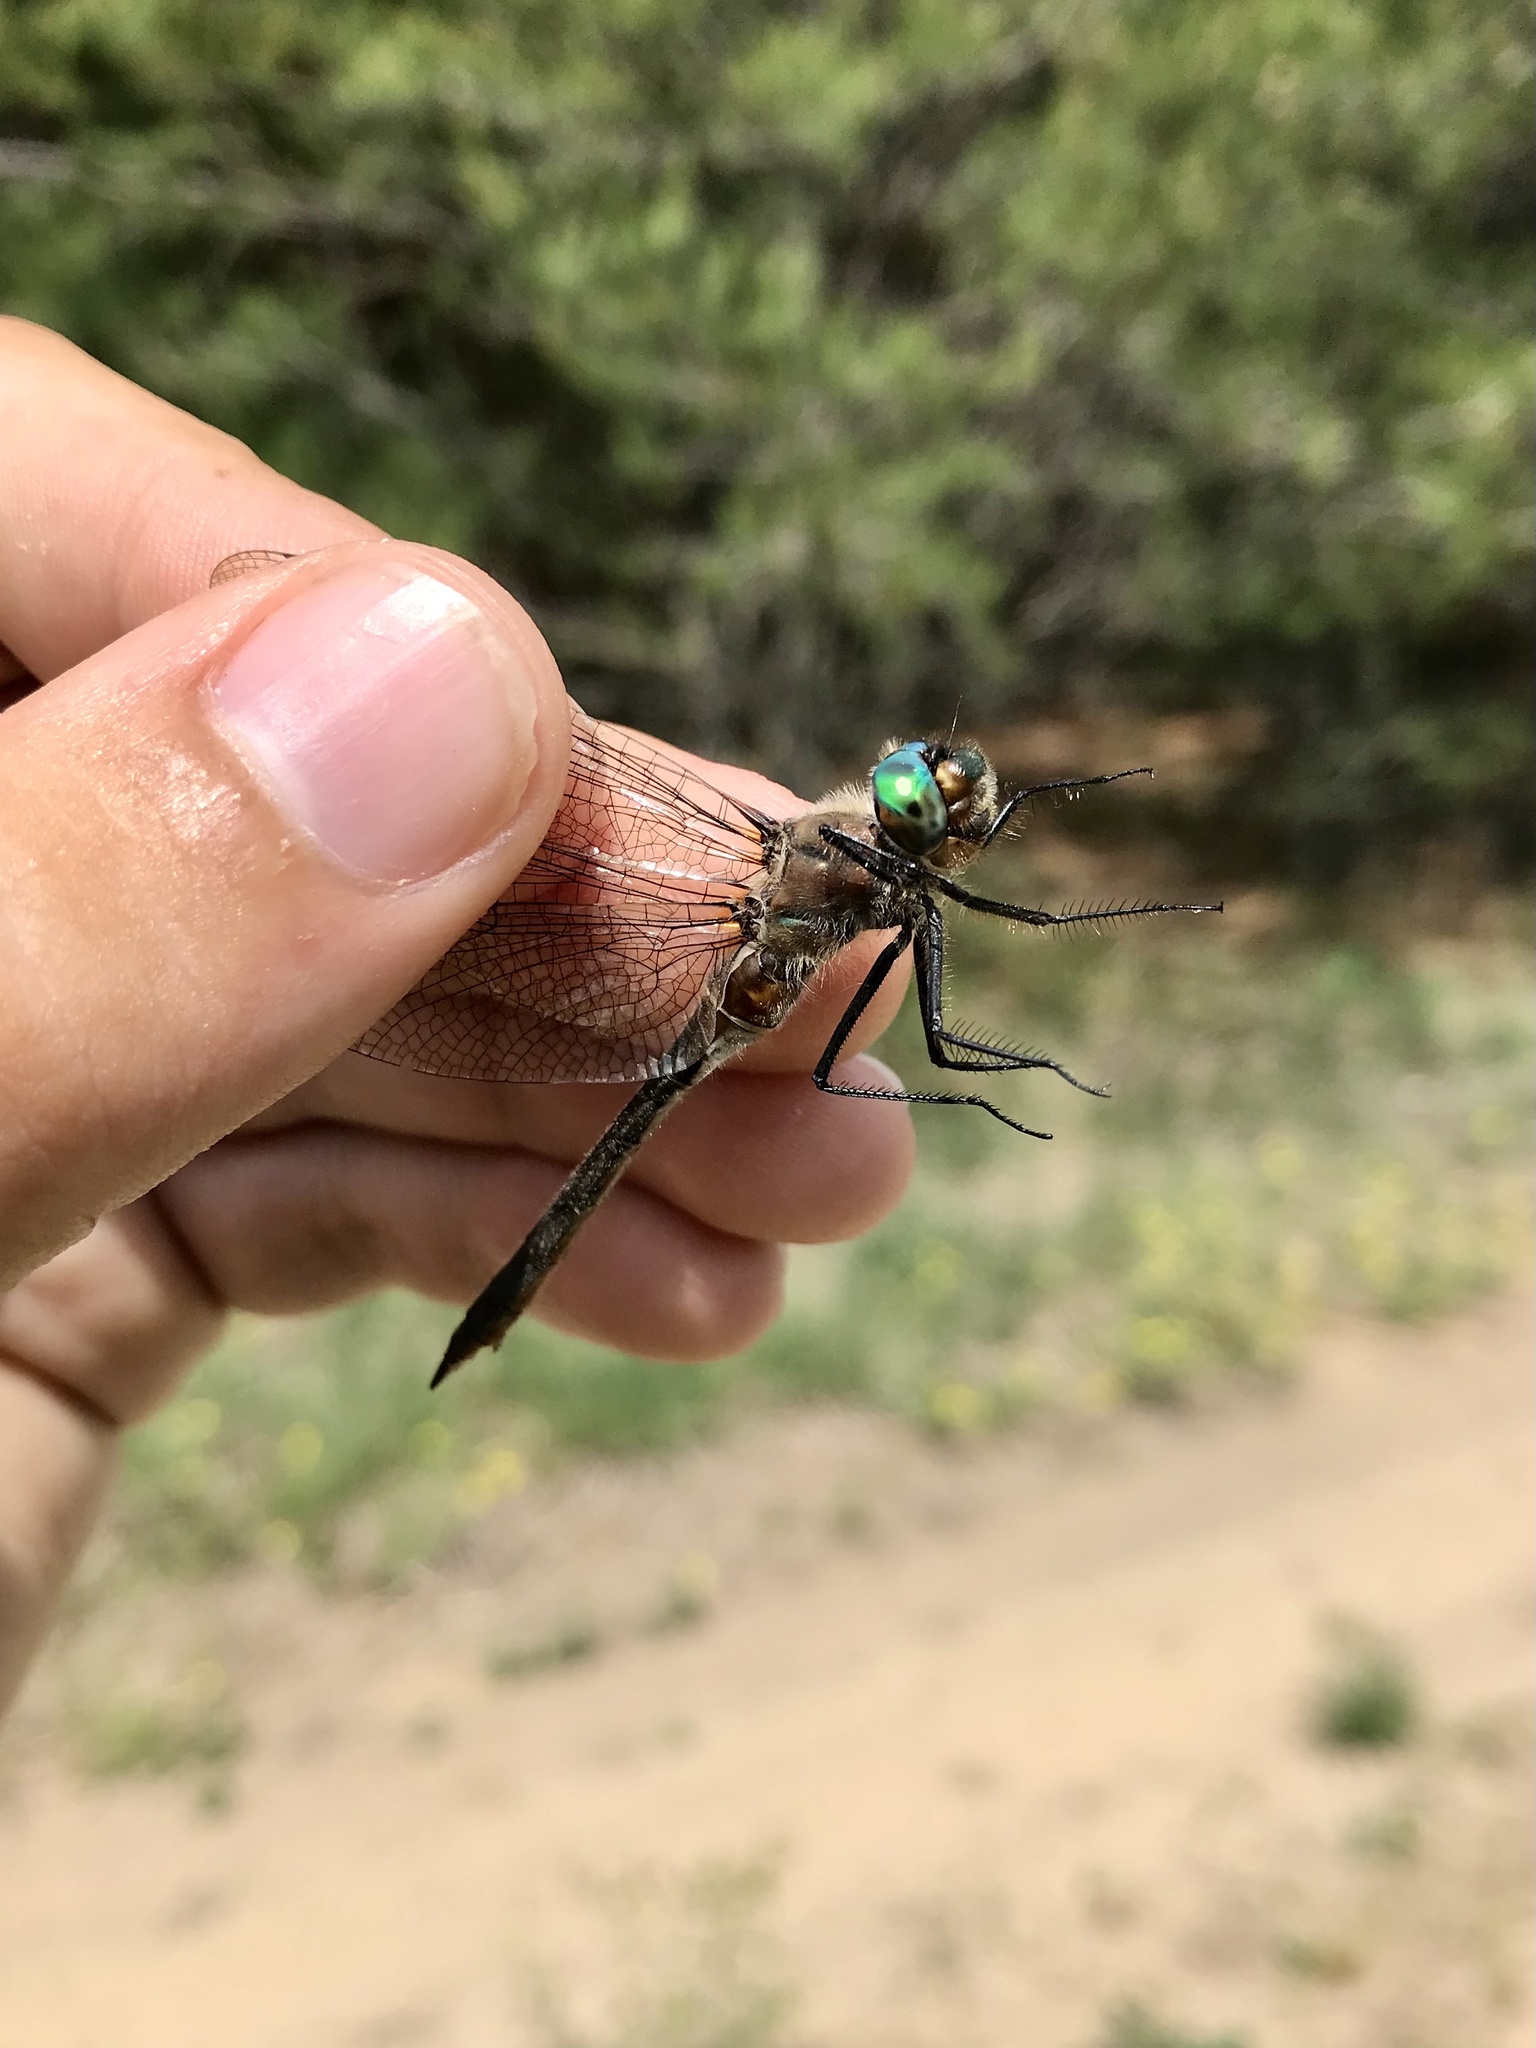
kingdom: Animalia
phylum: Arthropoda
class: Insecta
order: Odonata
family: Corduliidae
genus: Cordulia
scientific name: Cordulia shurtleffii
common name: American emerald
